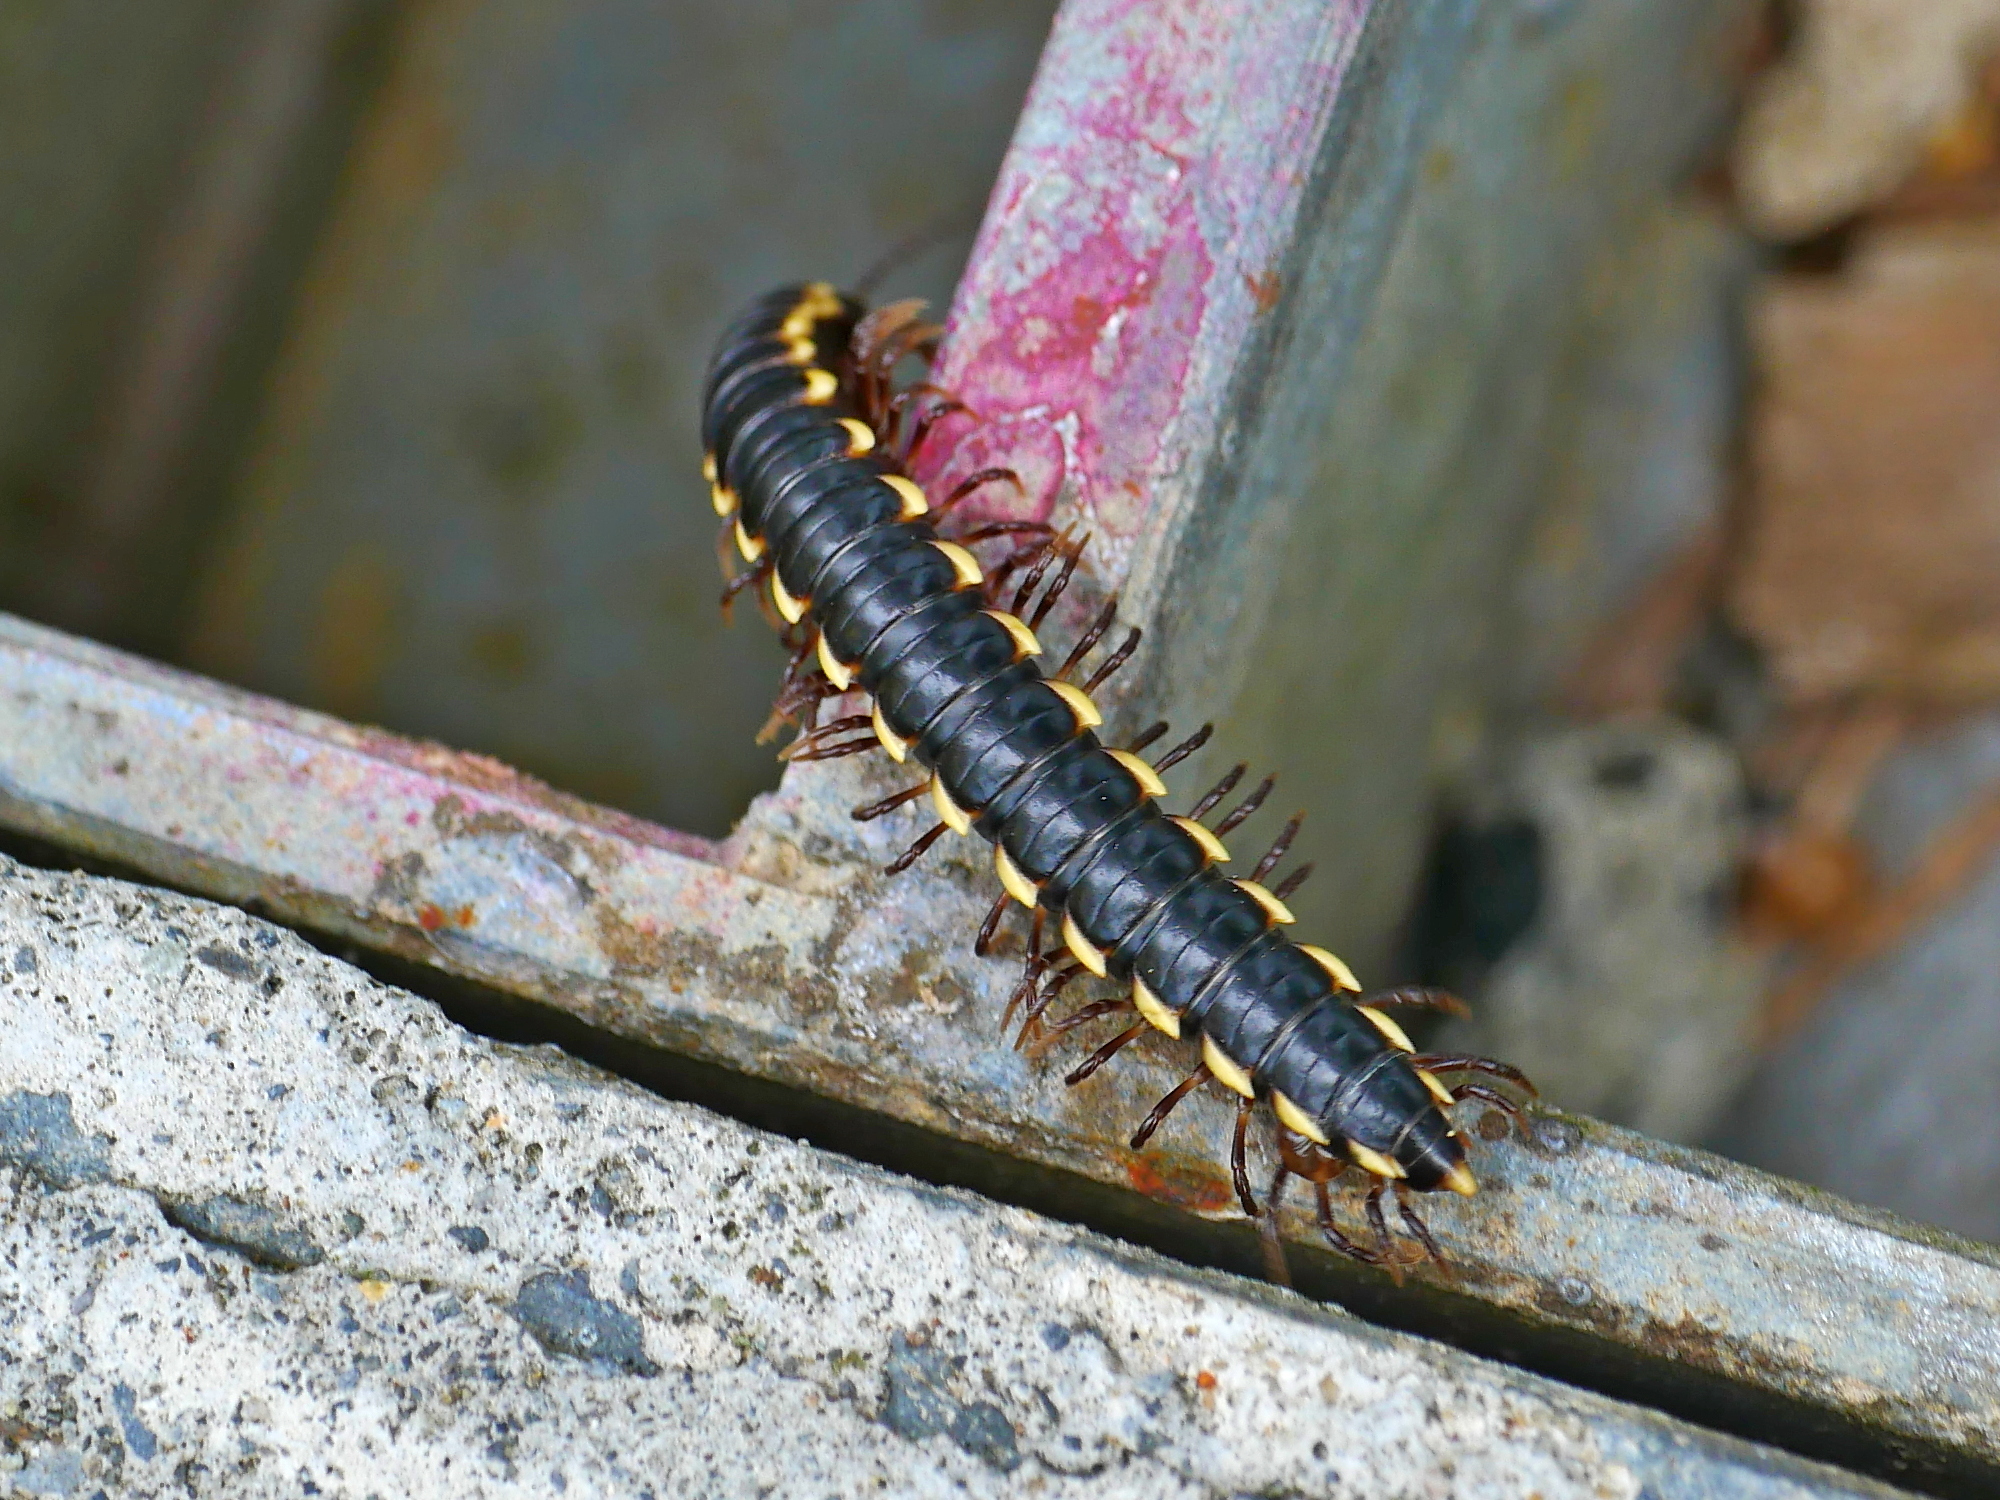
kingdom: Animalia
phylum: Arthropoda
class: Diplopoda
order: Polydesmida
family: Paradoxosomatidae
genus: Orthomorphella
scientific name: Orthomorphella pekuensis
